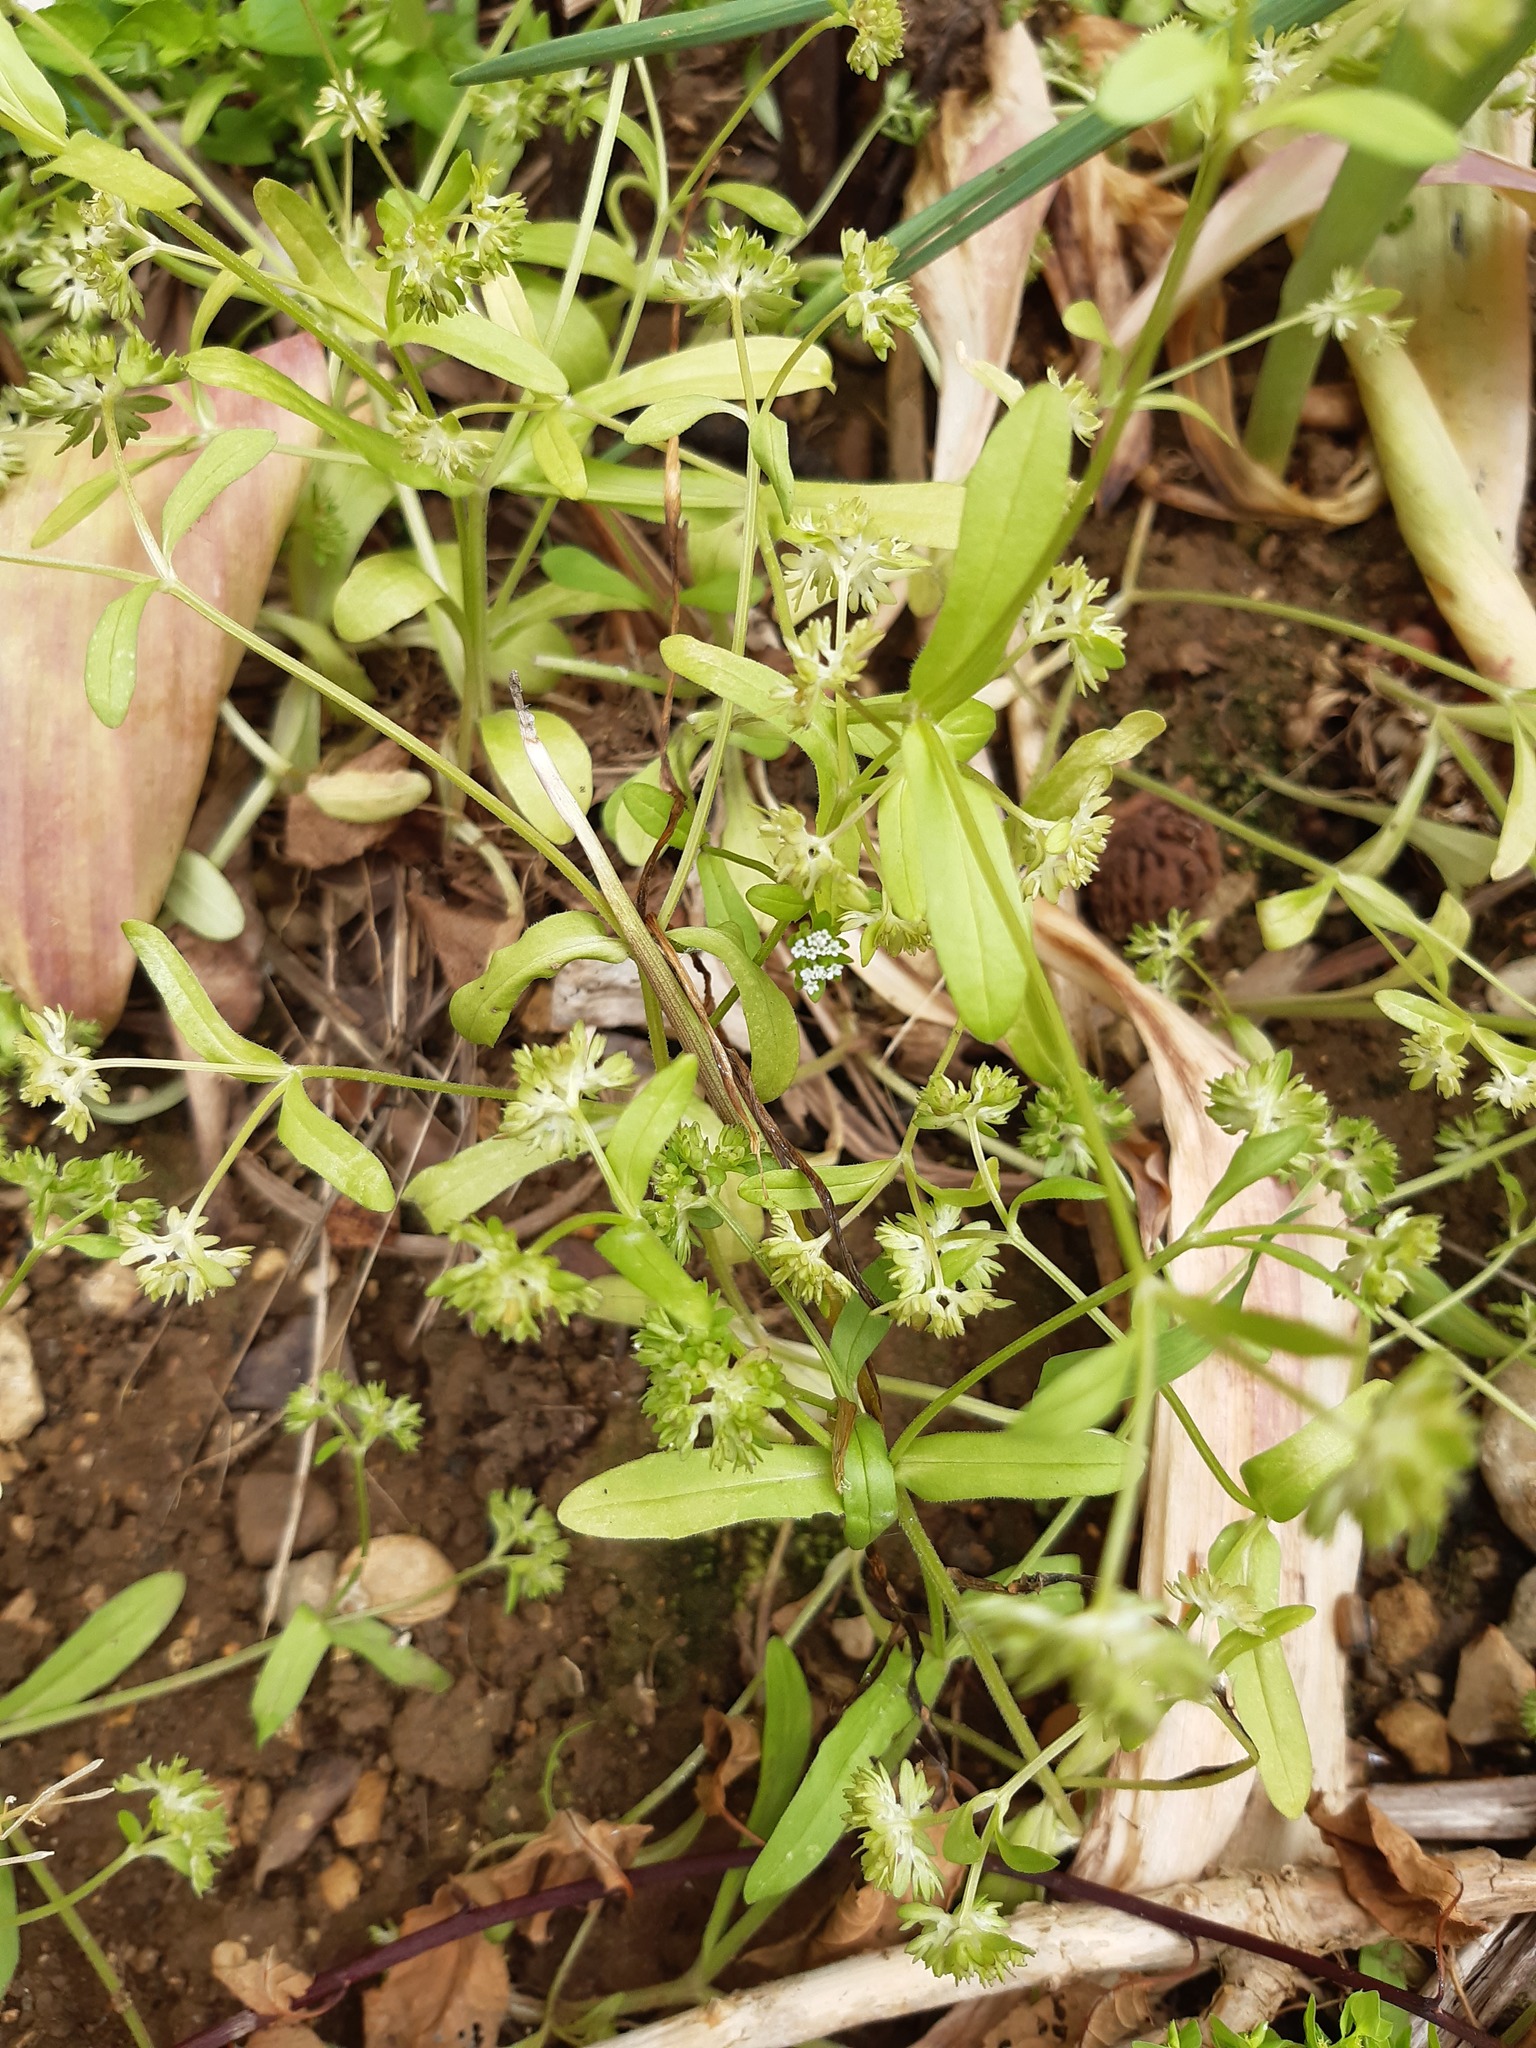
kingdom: Plantae
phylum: Tracheophyta
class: Magnoliopsida
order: Dipsacales
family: Caprifoliaceae
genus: Valerianella
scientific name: Valerianella locusta
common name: Common cornsalad
